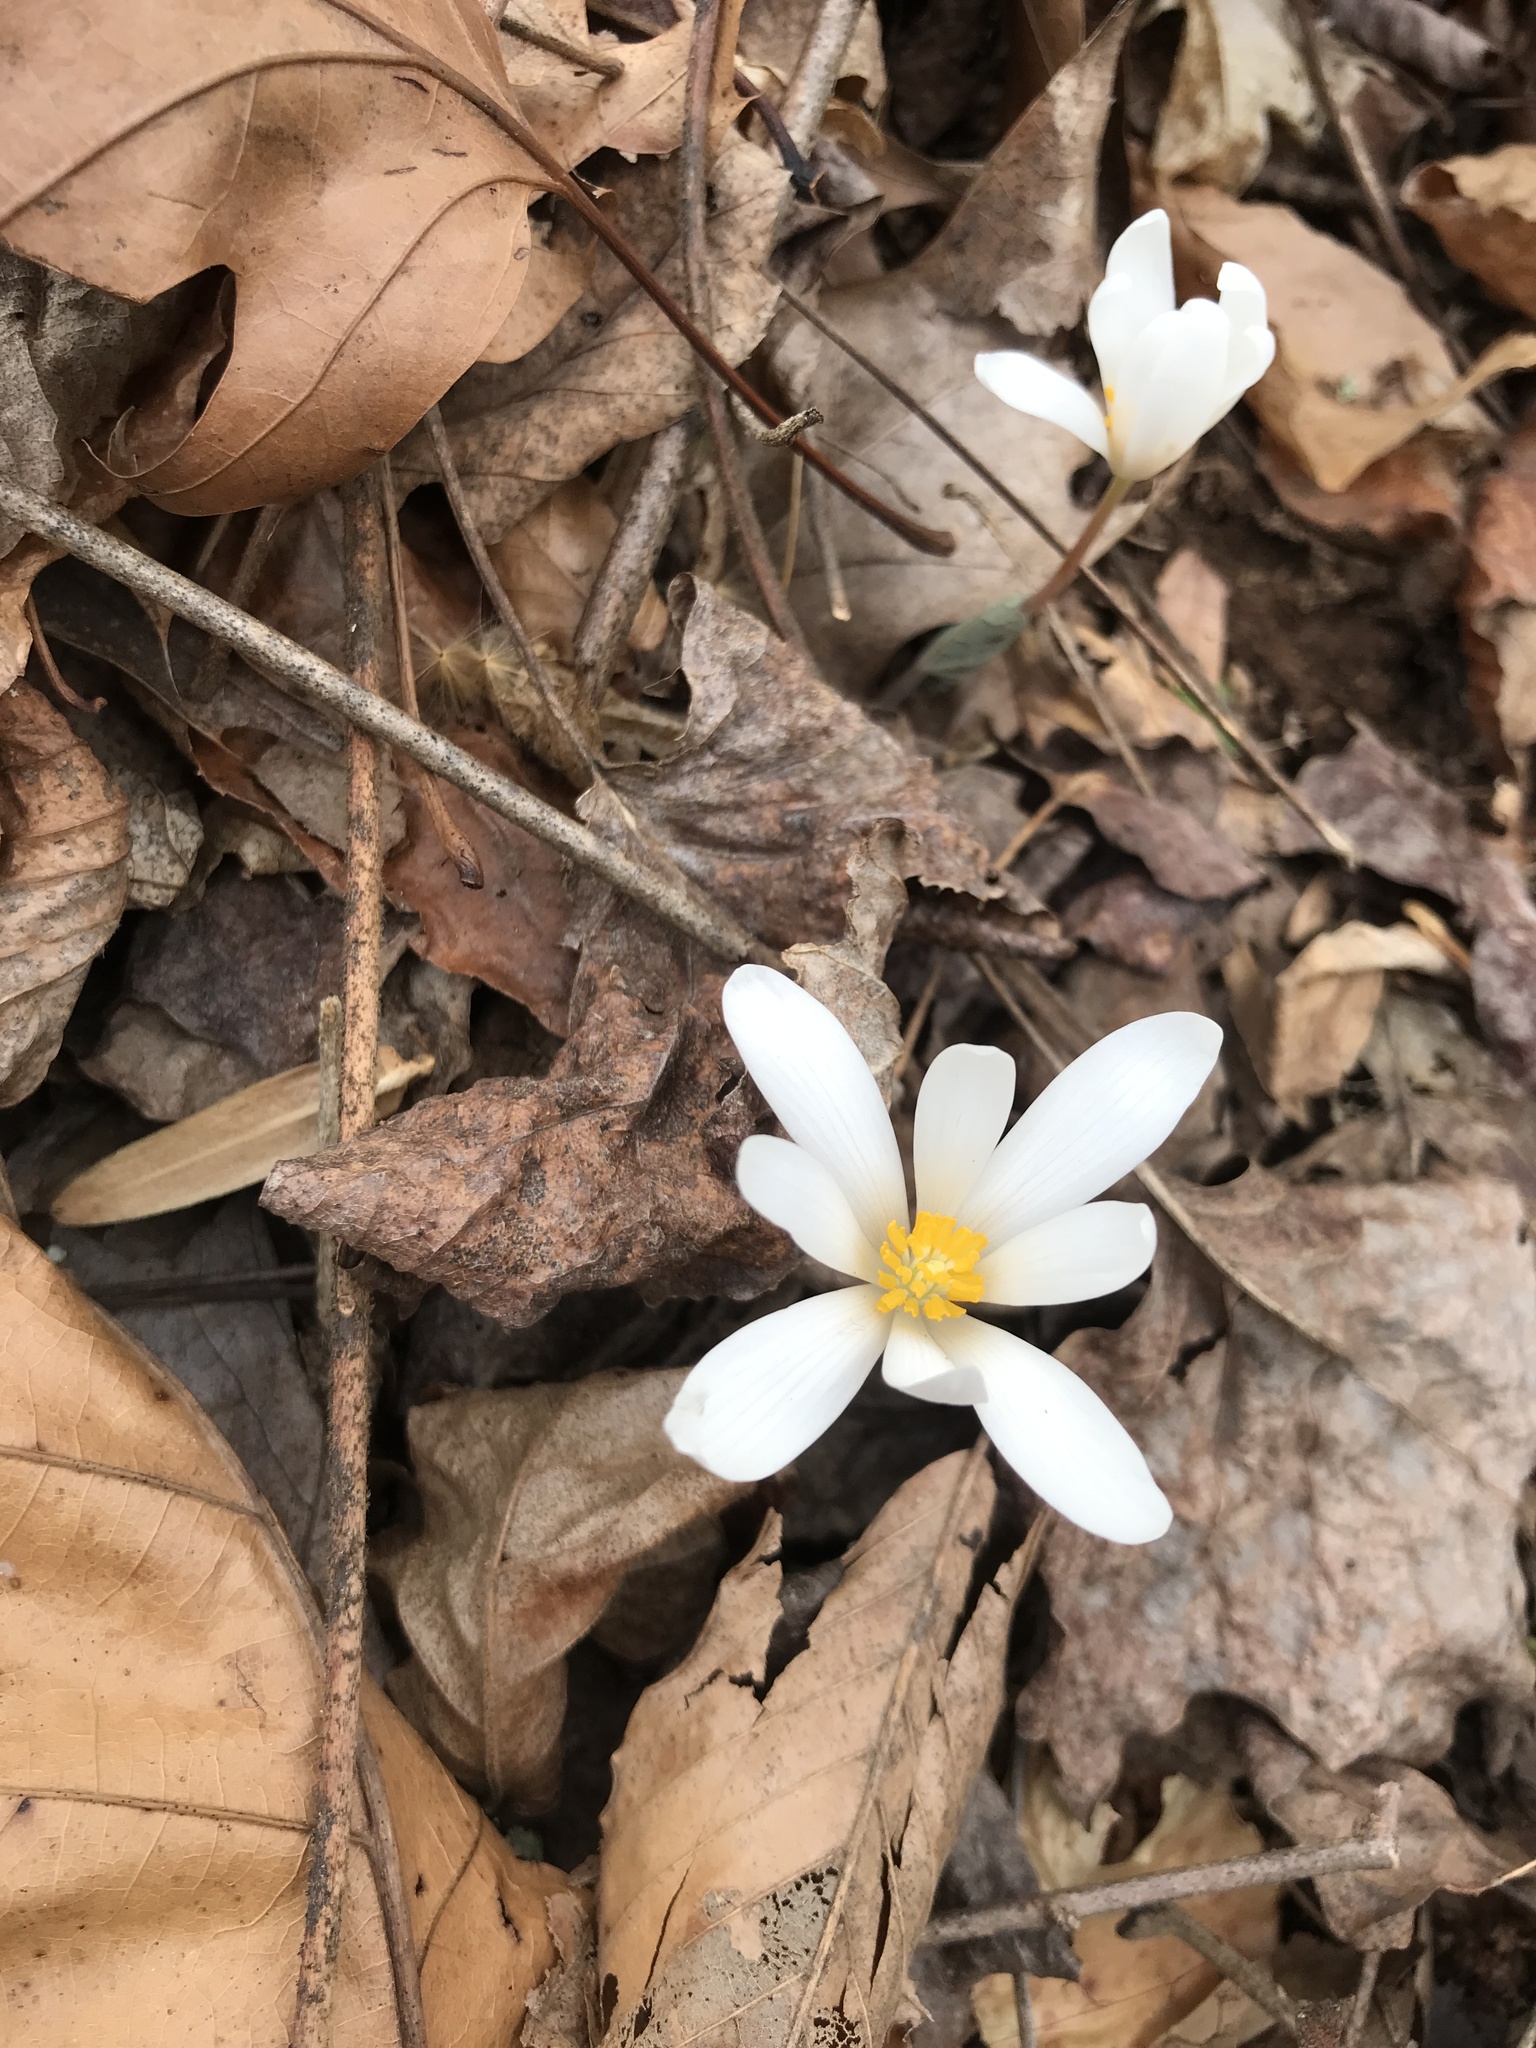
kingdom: Plantae
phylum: Tracheophyta
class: Magnoliopsida
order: Ranunculales
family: Papaveraceae
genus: Sanguinaria
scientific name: Sanguinaria canadensis
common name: Bloodroot
